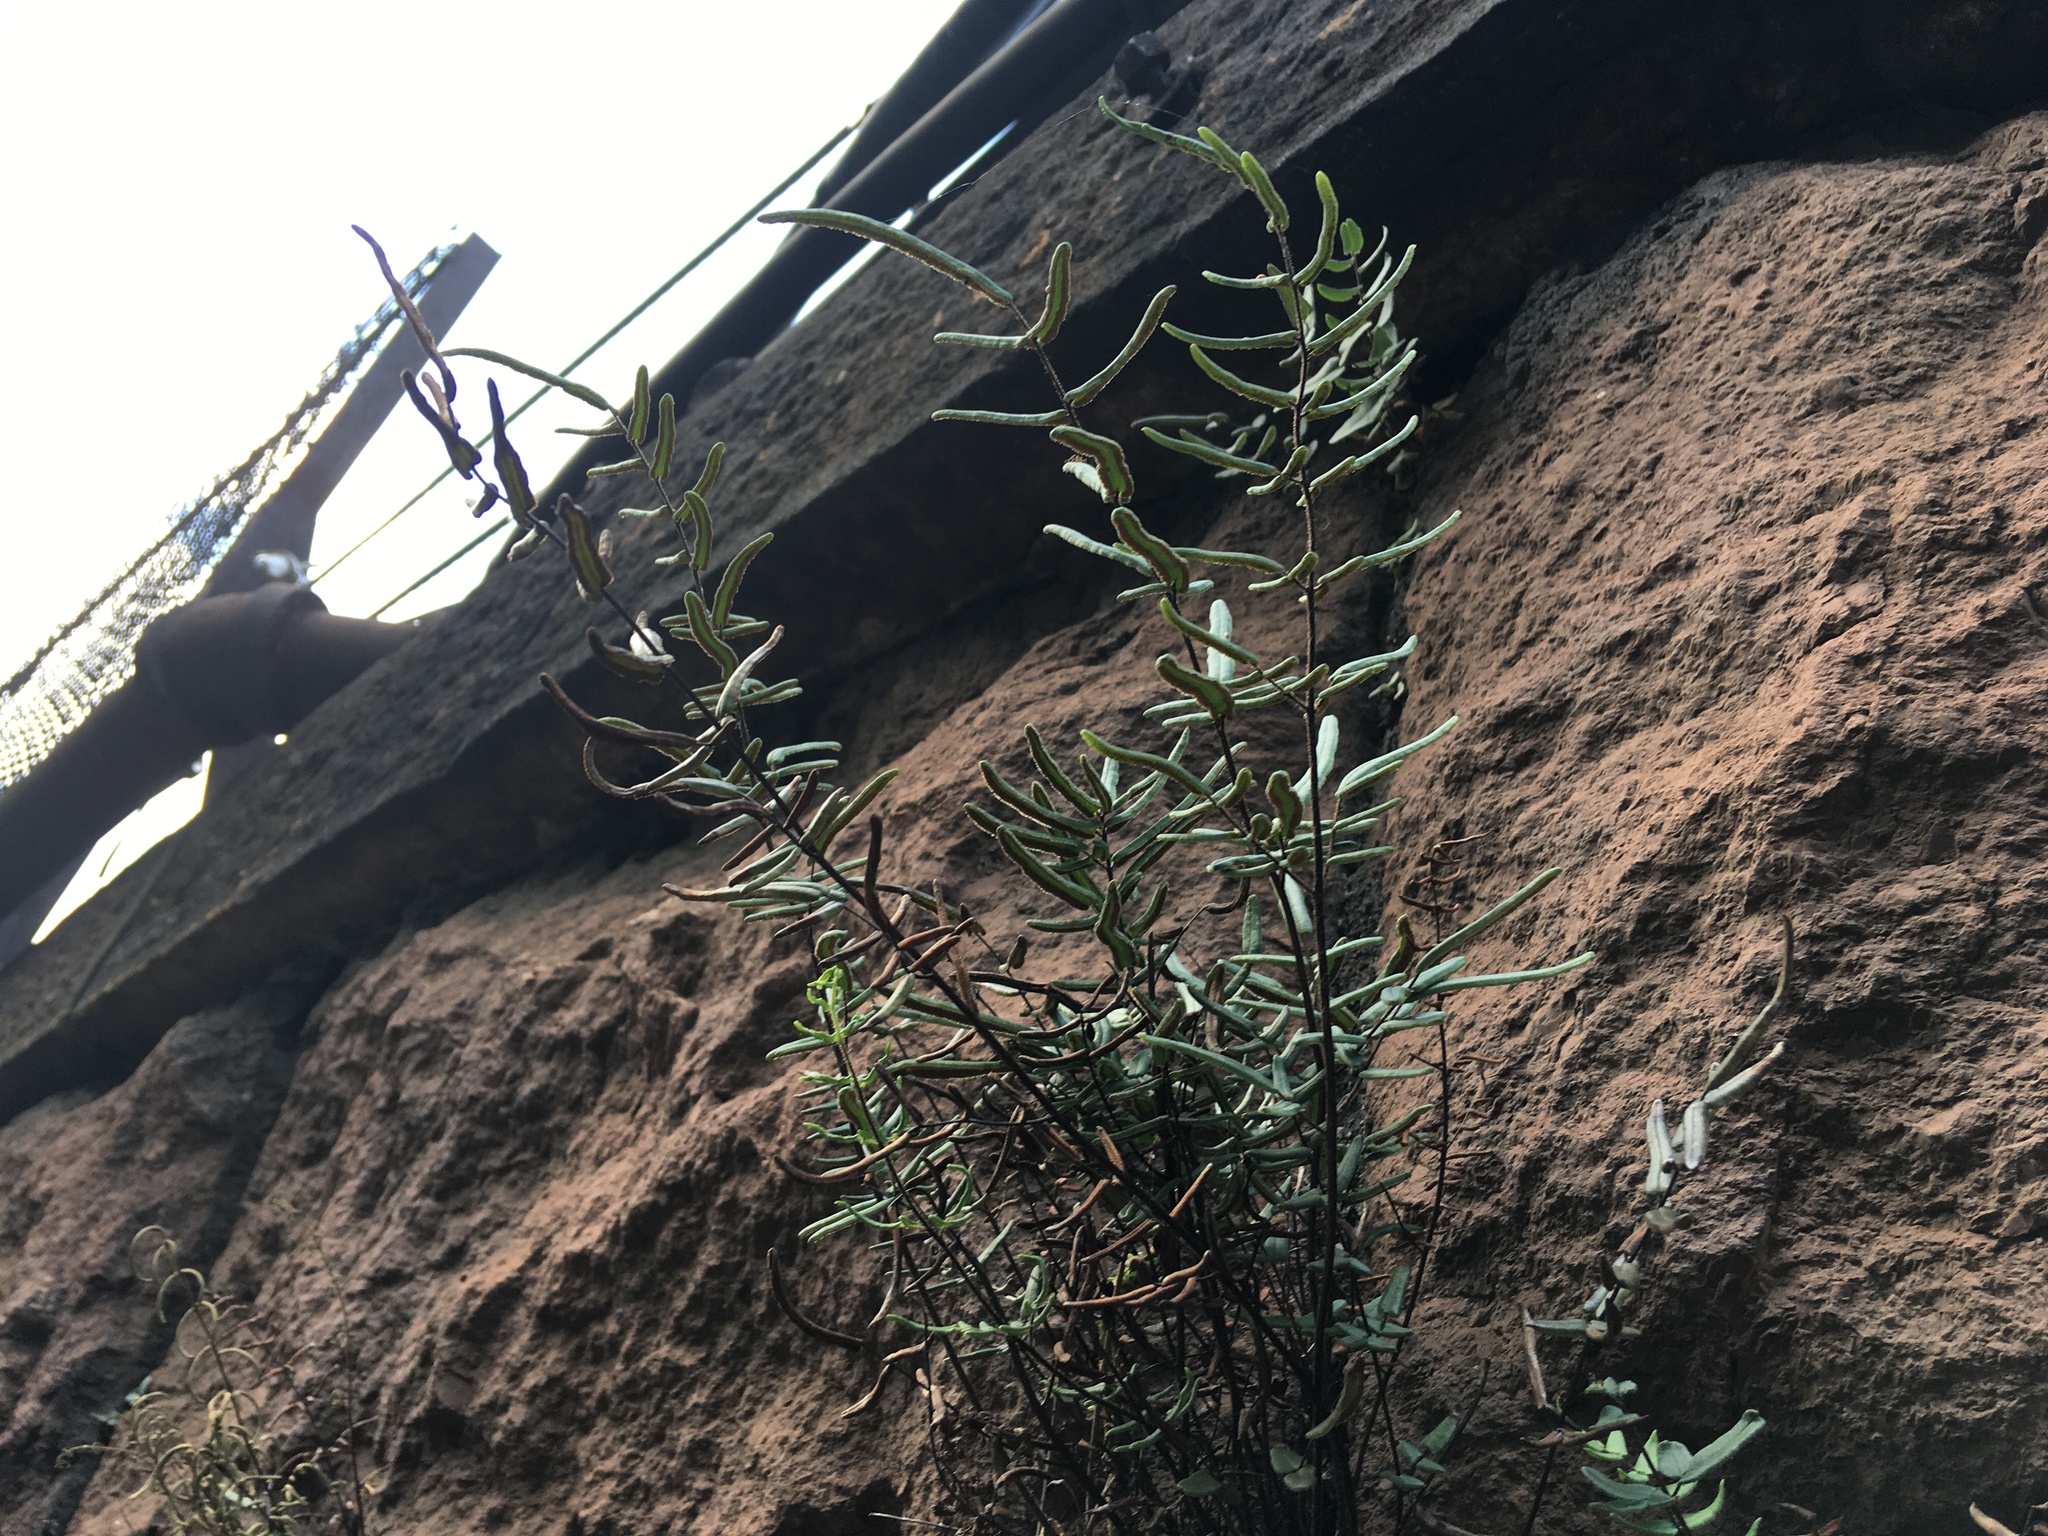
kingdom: Plantae
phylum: Tracheophyta
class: Polypodiopsida
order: Polypodiales
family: Pteridaceae
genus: Pellaea
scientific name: Pellaea atropurpurea
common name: Hairy cliffbrake
